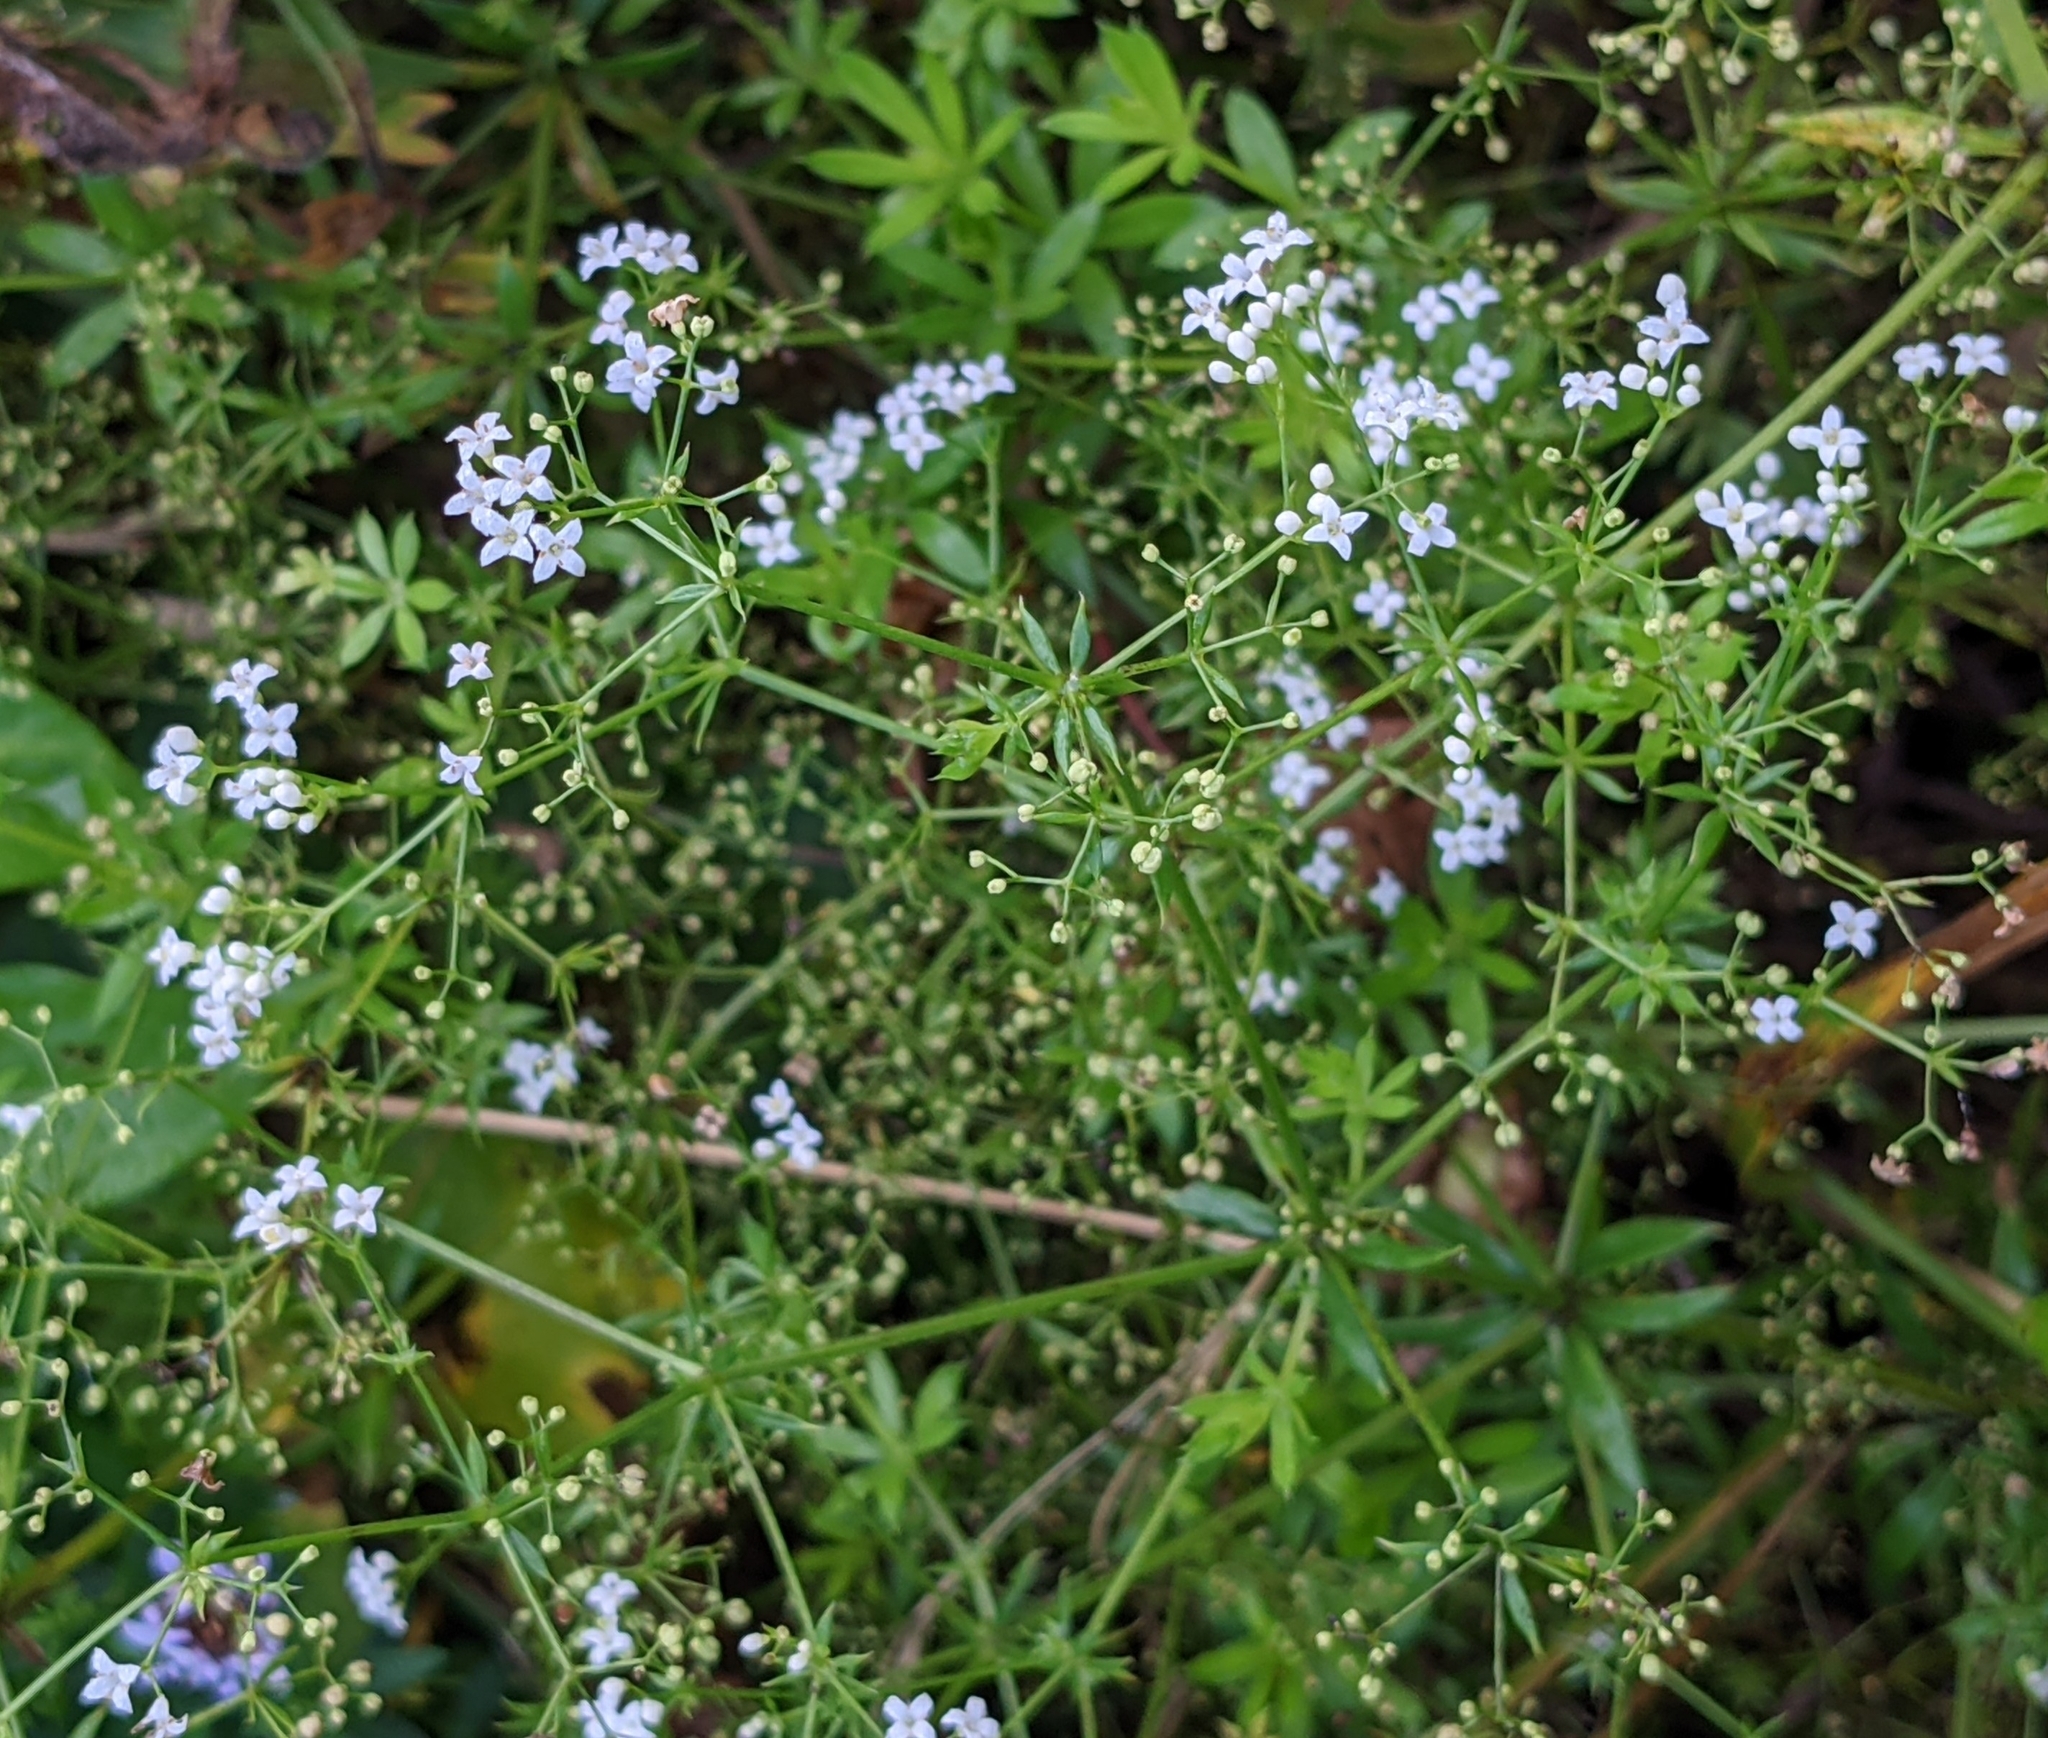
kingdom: Plantae
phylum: Tracheophyta
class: Magnoliopsida
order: Gentianales
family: Rubiaceae
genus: Galium
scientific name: Galium rivale
